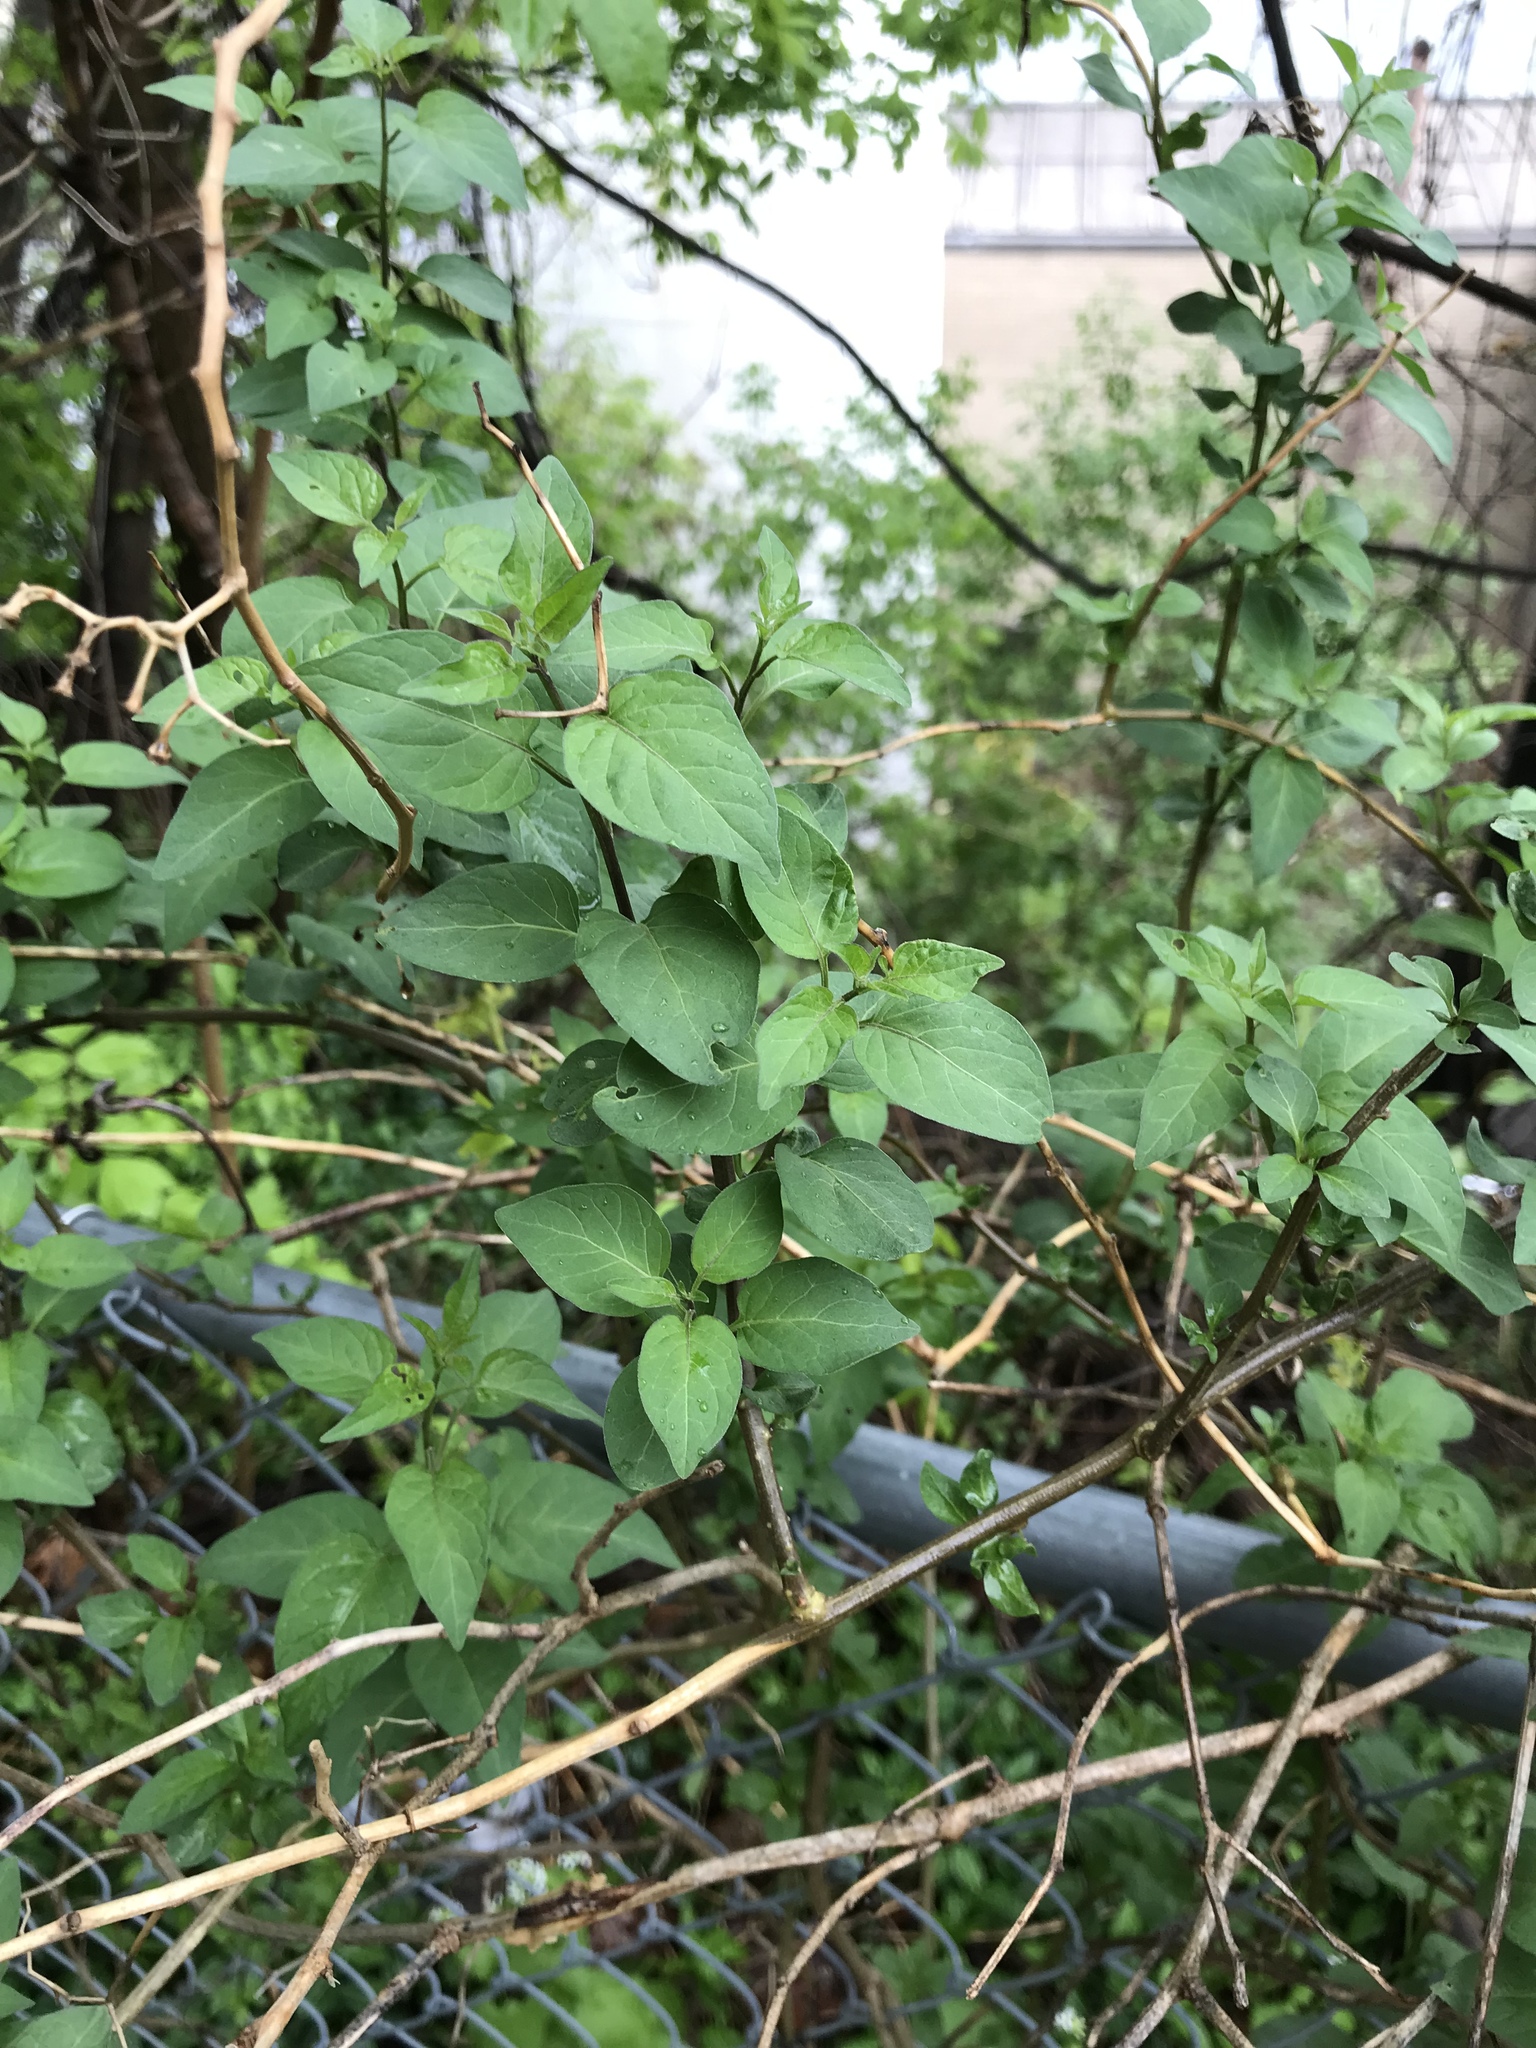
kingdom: Plantae
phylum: Tracheophyta
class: Magnoliopsida
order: Solanales
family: Solanaceae
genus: Solanum
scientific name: Solanum dulcamara
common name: Climbing nightshade
